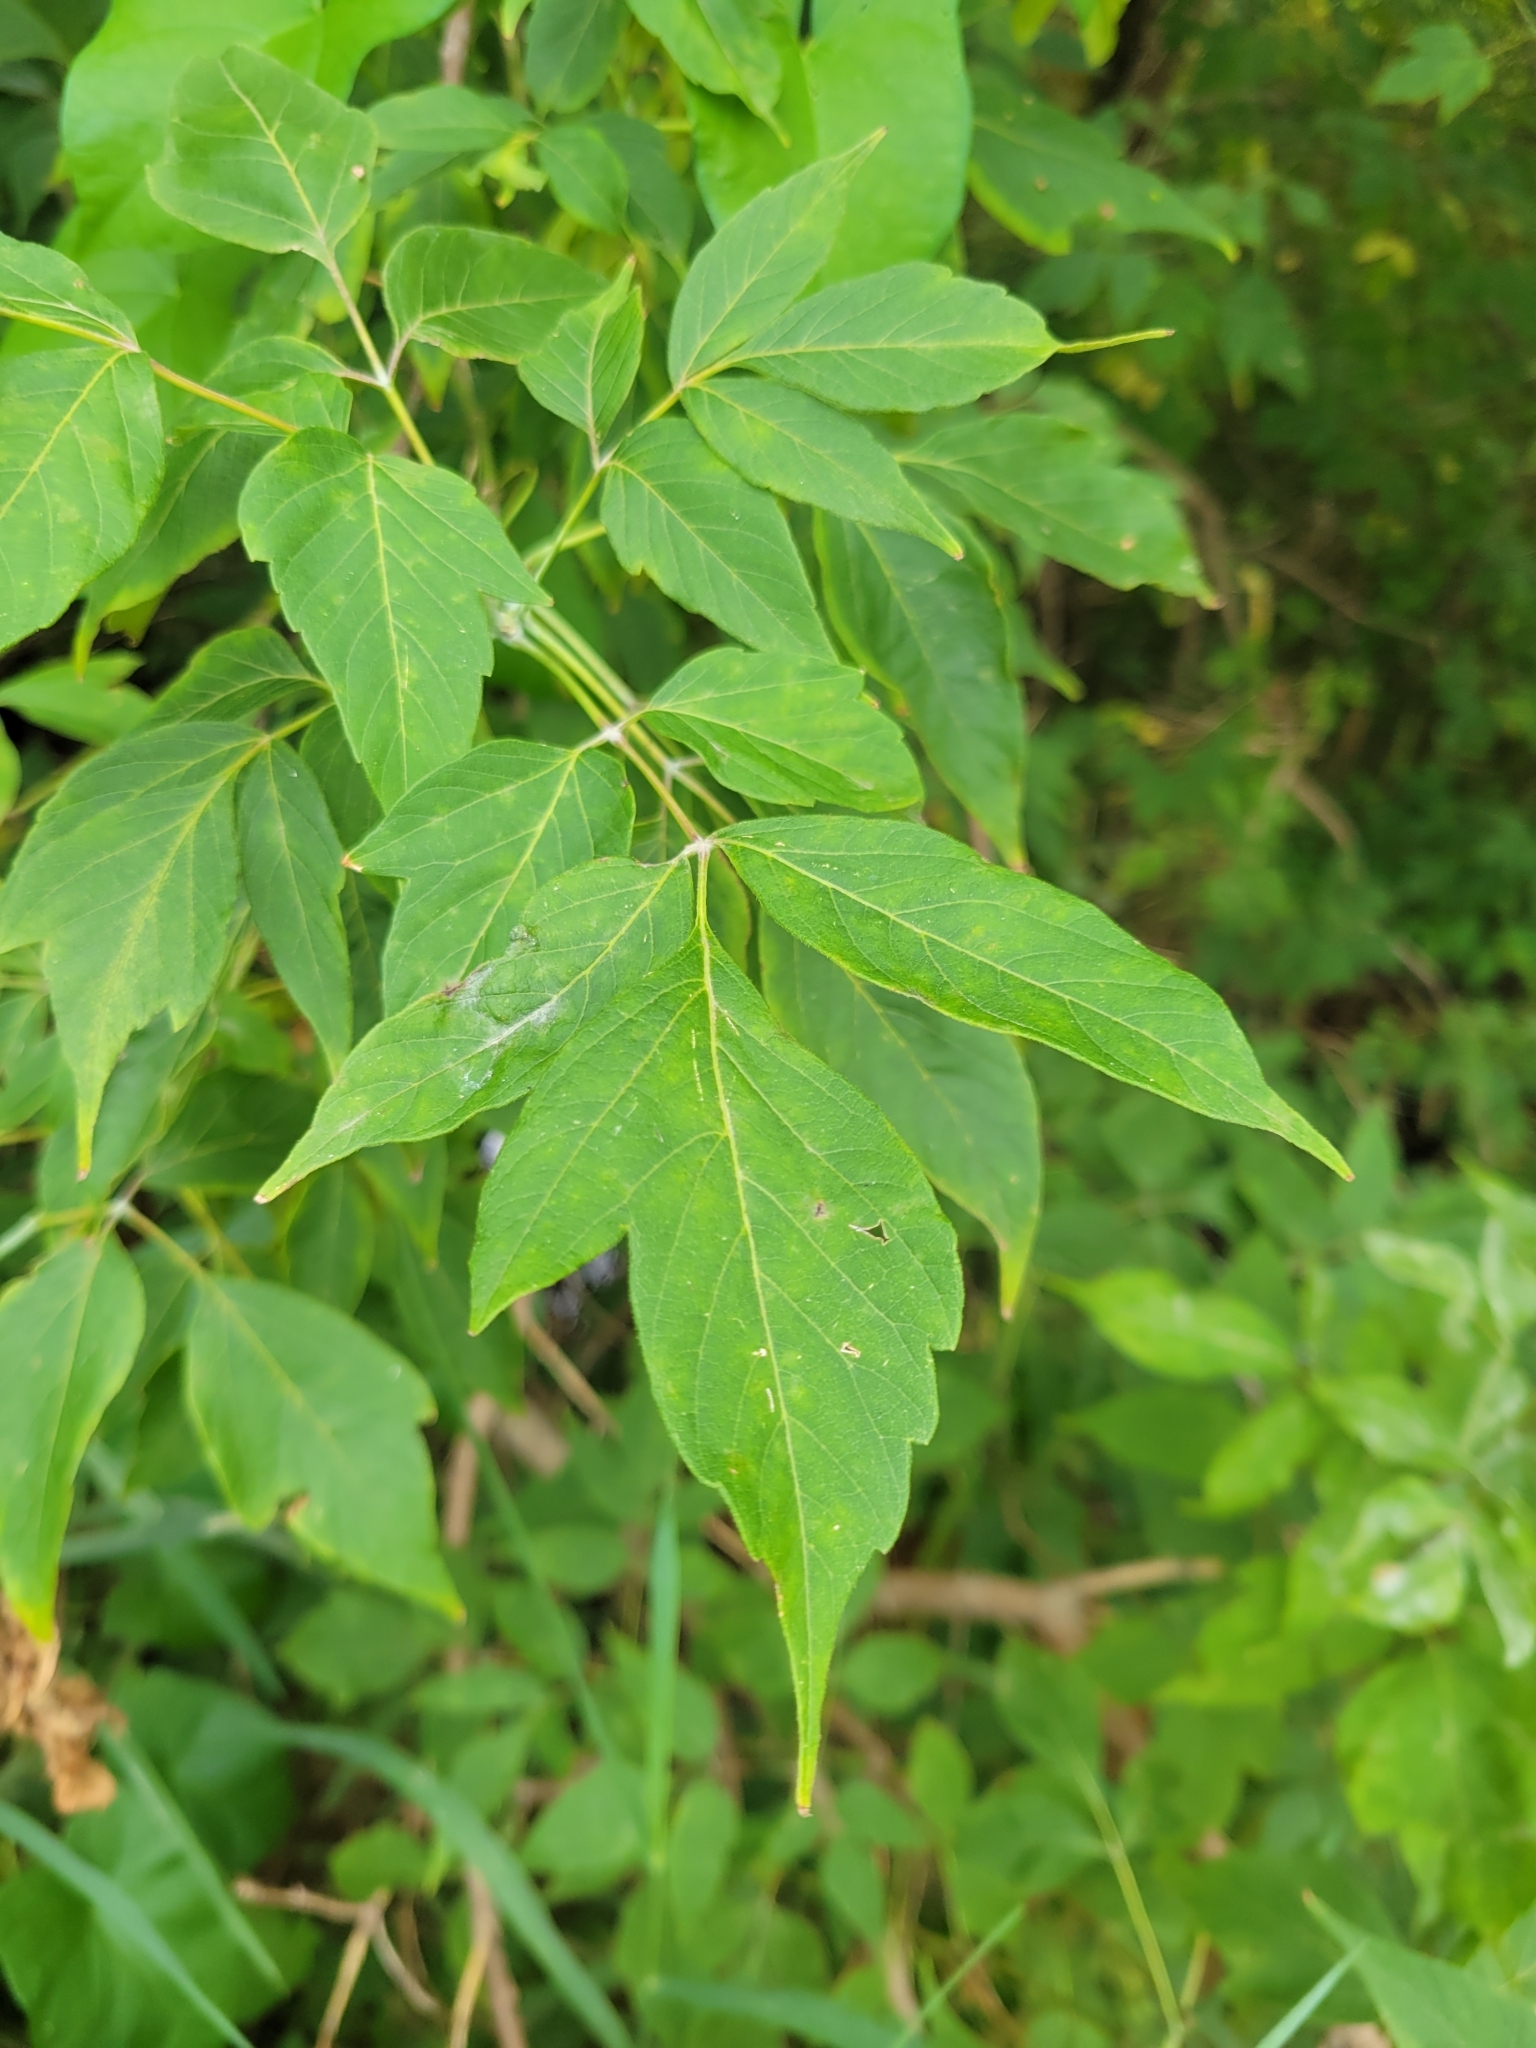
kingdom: Plantae
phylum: Tracheophyta
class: Magnoliopsida
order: Sapindales
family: Sapindaceae
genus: Acer
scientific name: Acer negundo
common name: Ashleaf maple
